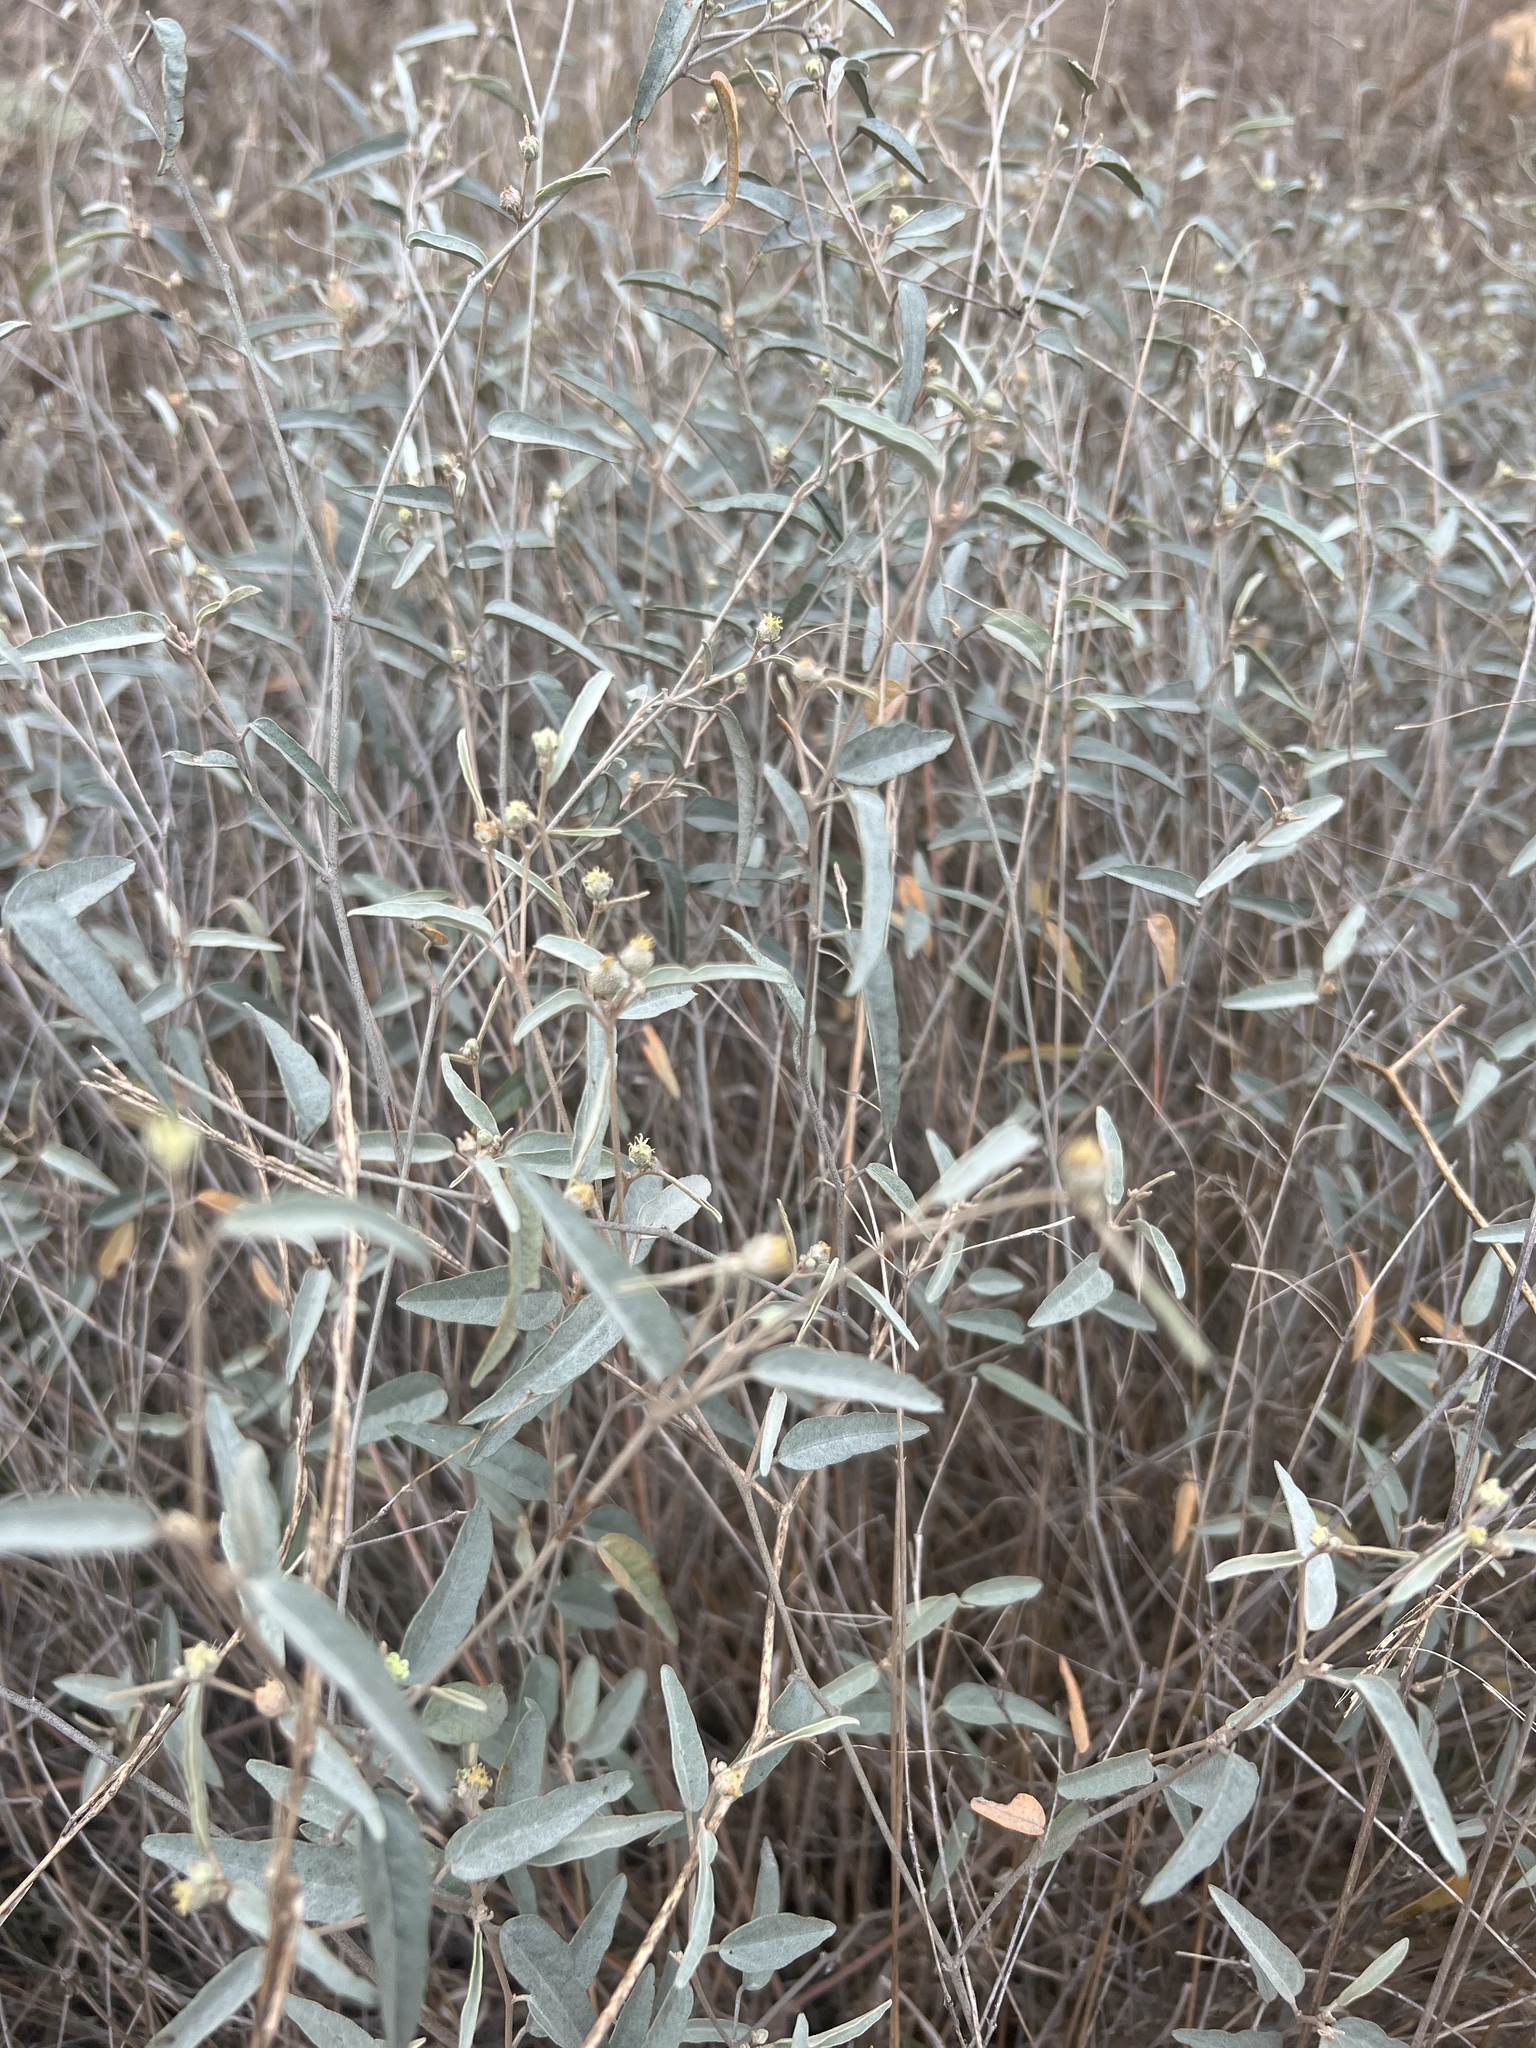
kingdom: Plantae
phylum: Tracheophyta
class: Magnoliopsida
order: Malpighiales
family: Euphorbiaceae
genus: Croton
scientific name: Croton californicus
